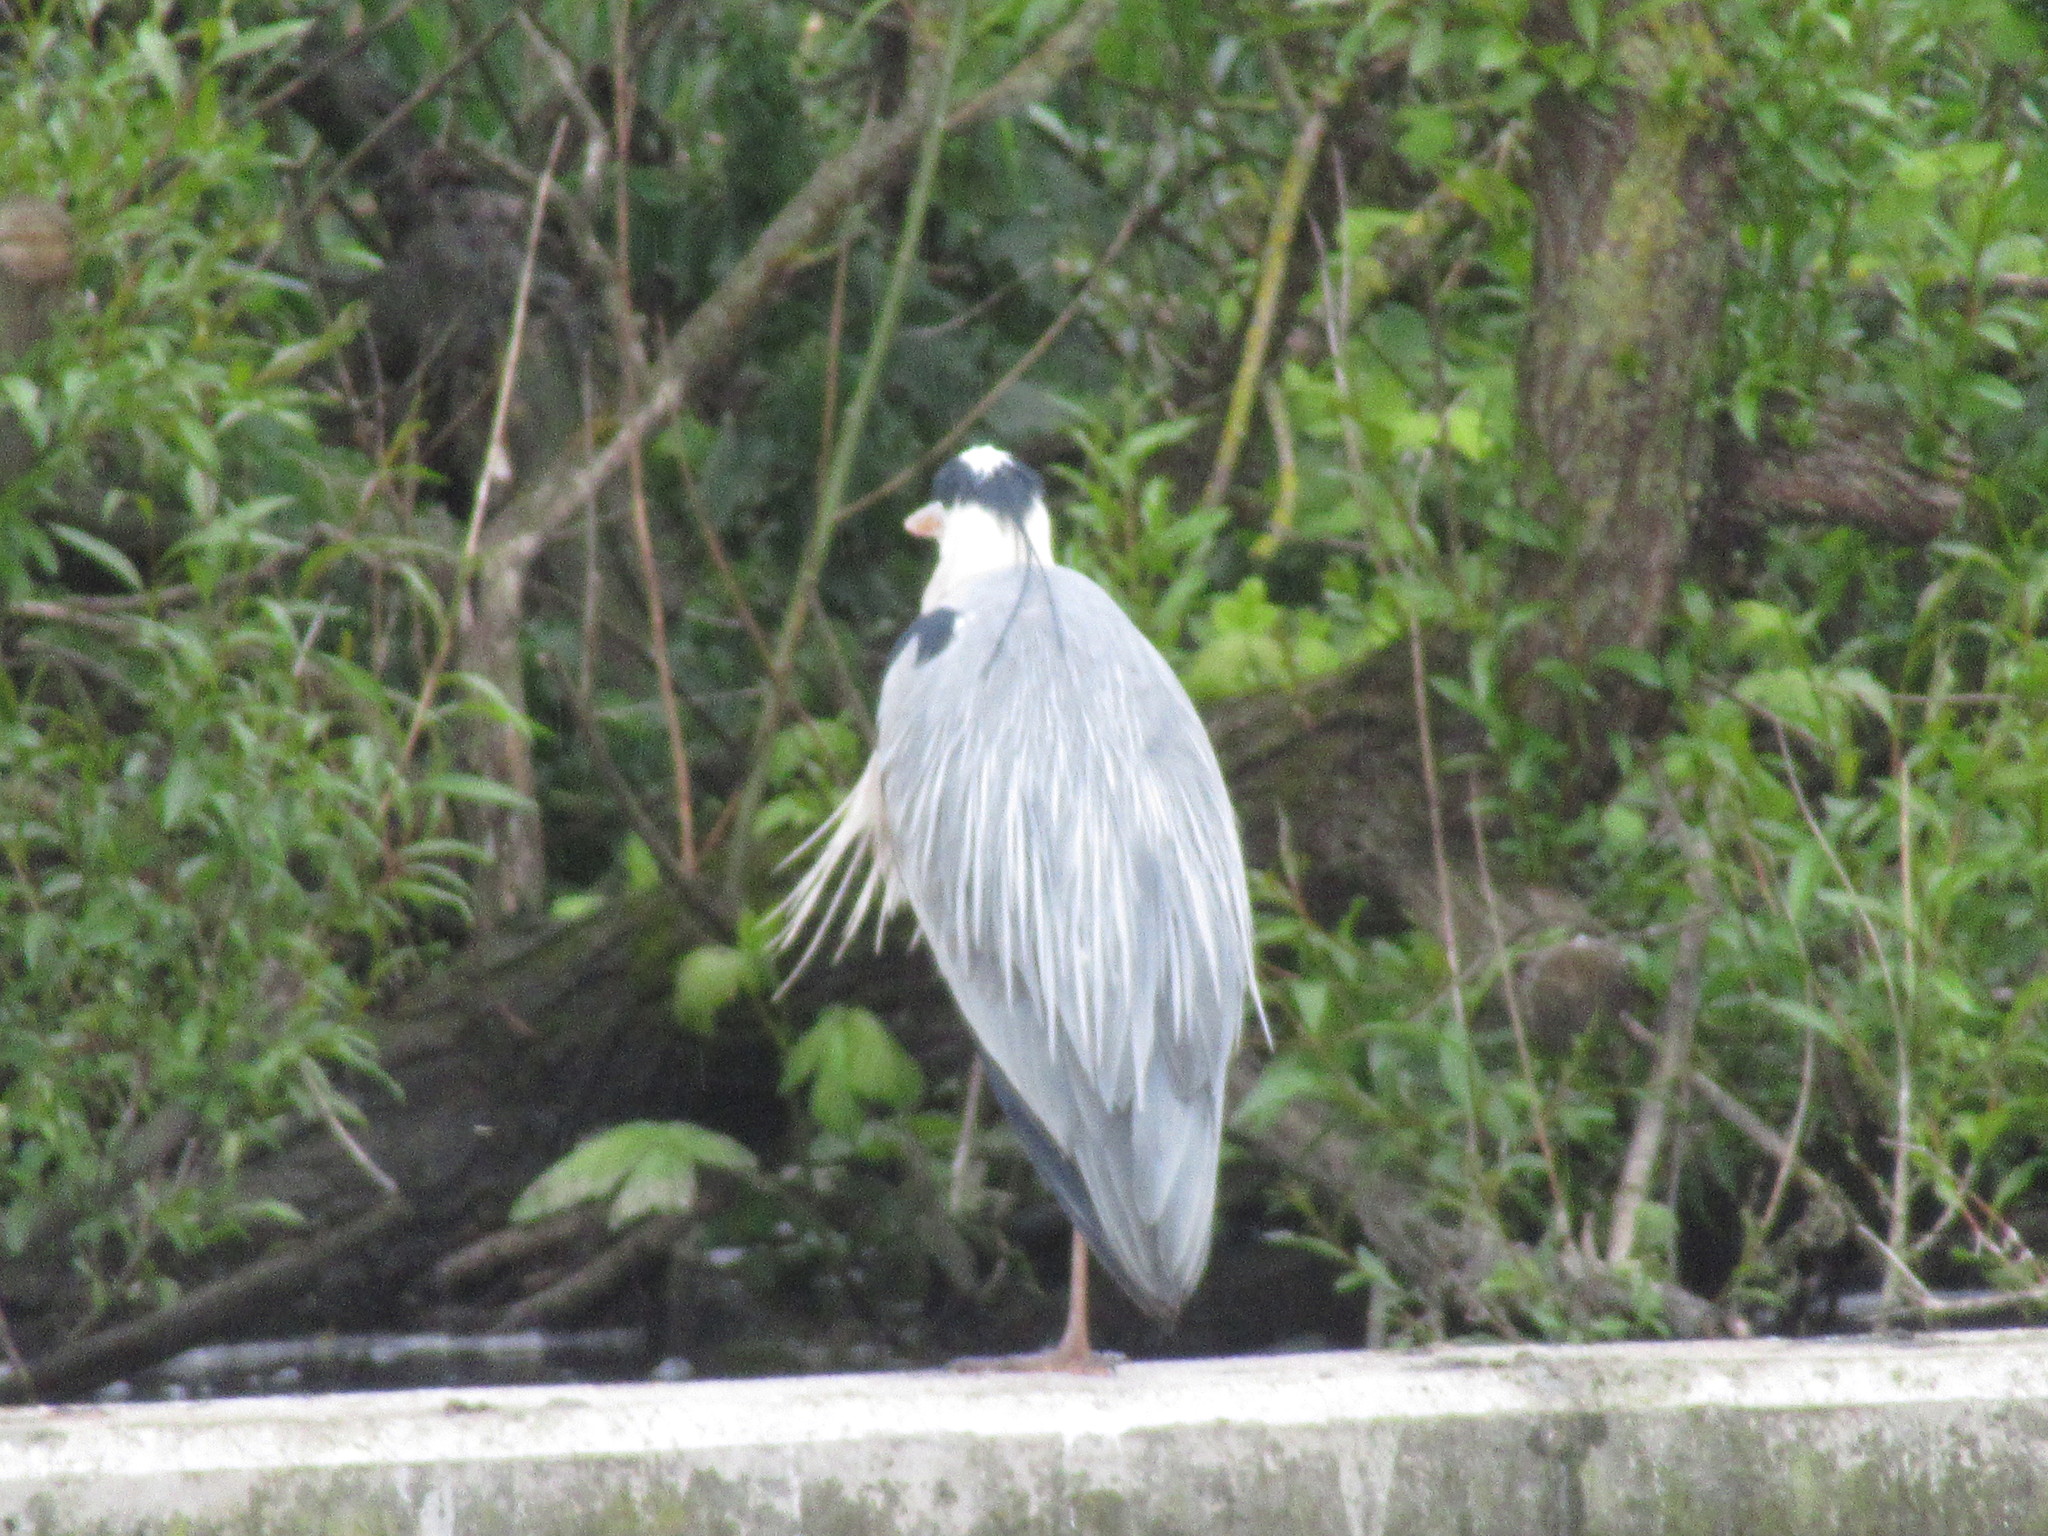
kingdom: Animalia
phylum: Chordata
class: Aves
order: Pelecaniformes
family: Ardeidae
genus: Ardea
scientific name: Ardea cinerea
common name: Grey heron
